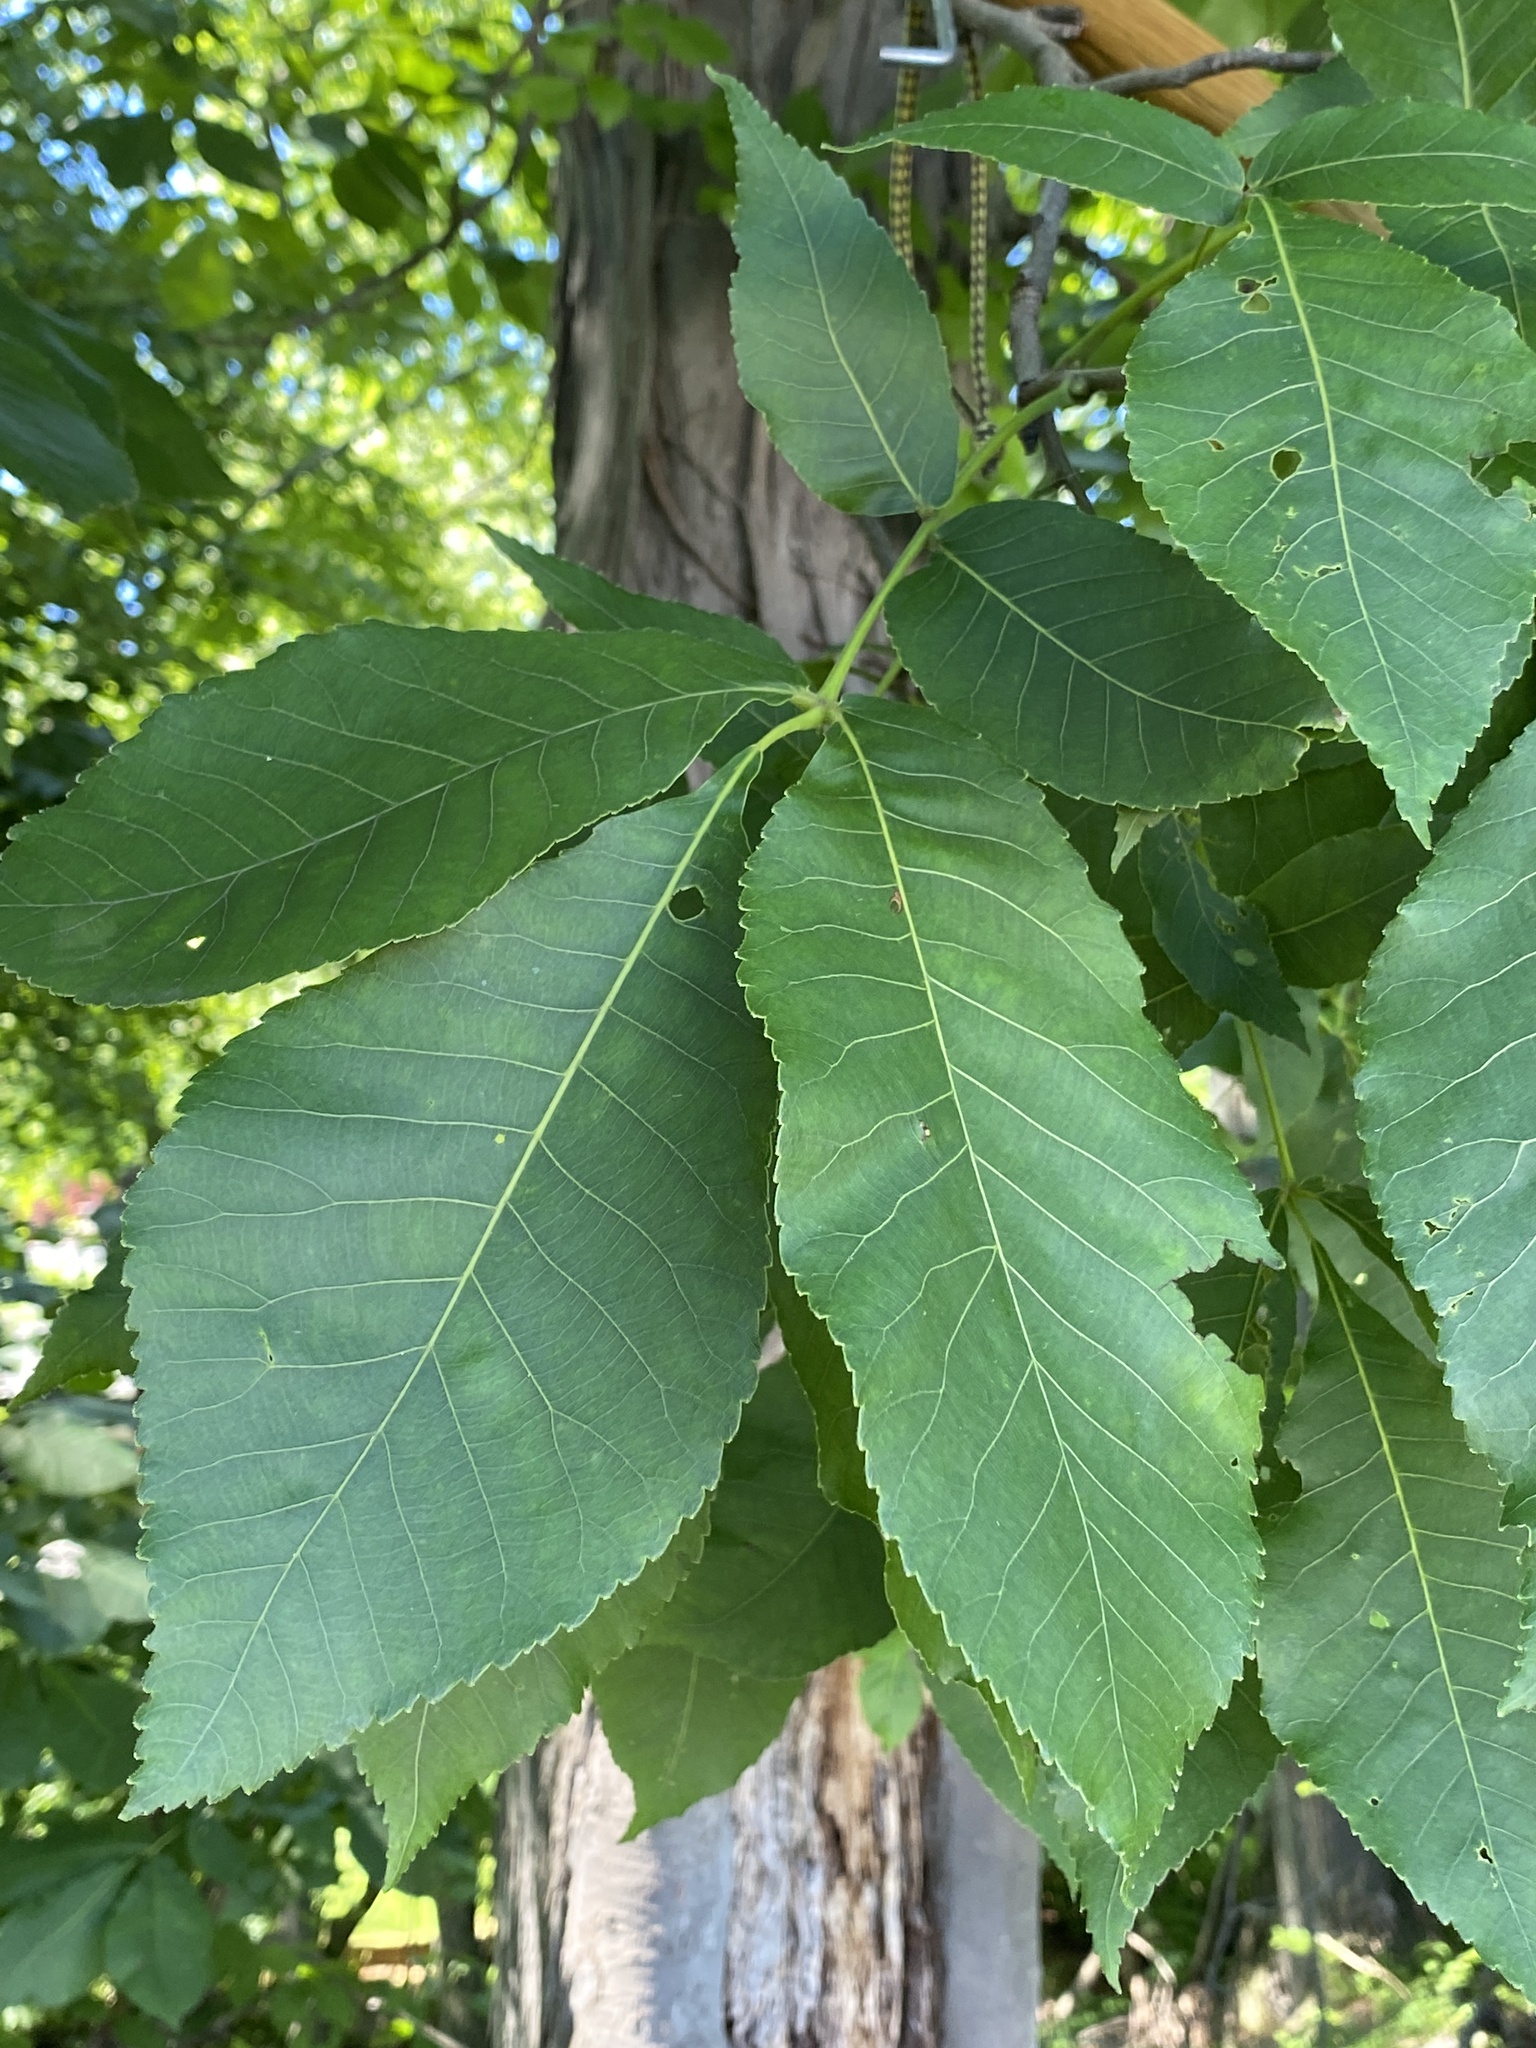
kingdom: Plantae
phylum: Tracheophyta
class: Magnoliopsida
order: Fagales
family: Juglandaceae
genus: Carya
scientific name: Carya ovata
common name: Shagbark hickory
